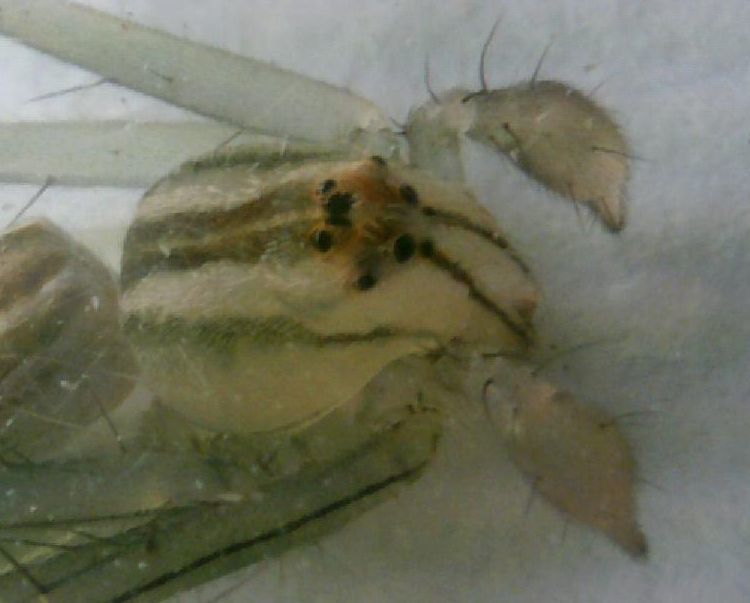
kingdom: Animalia
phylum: Arthropoda
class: Arachnida
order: Araneae
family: Oxyopidae
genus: Oxyopes
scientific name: Oxyopes macilentus
